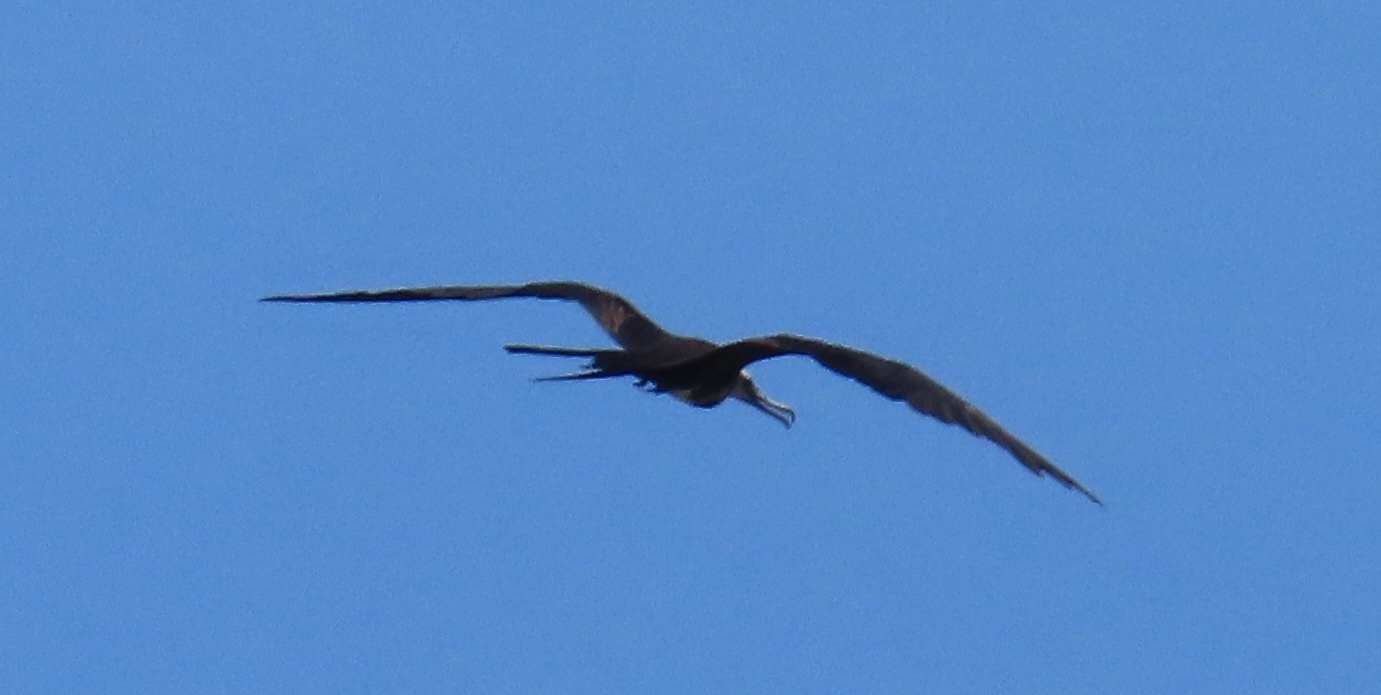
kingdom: Animalia
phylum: Chordata
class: Aves
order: Suliformes
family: Fregatidae
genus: Fregata
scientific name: Fregata magnificens
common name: Magnificent frigatebird
